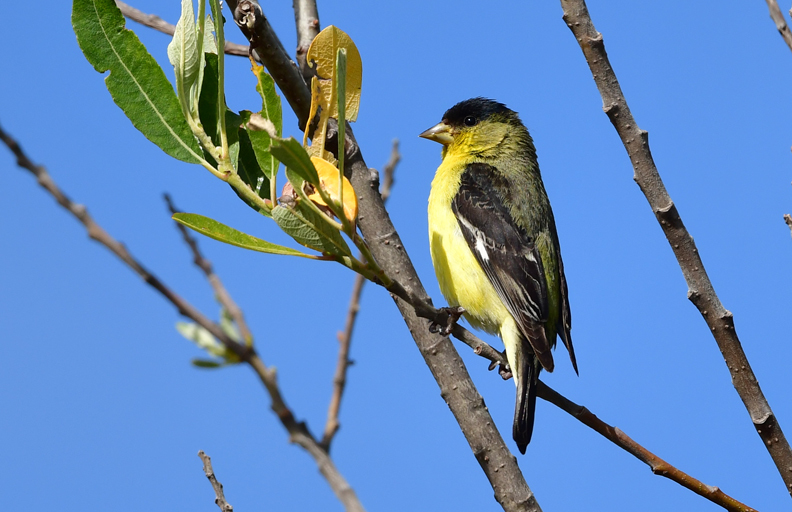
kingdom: Animalia
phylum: Chordata
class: Aves
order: Passeriformes
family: Fringillidae
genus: Spinus
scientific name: Spinus psaltria
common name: Lesser goldfinch
